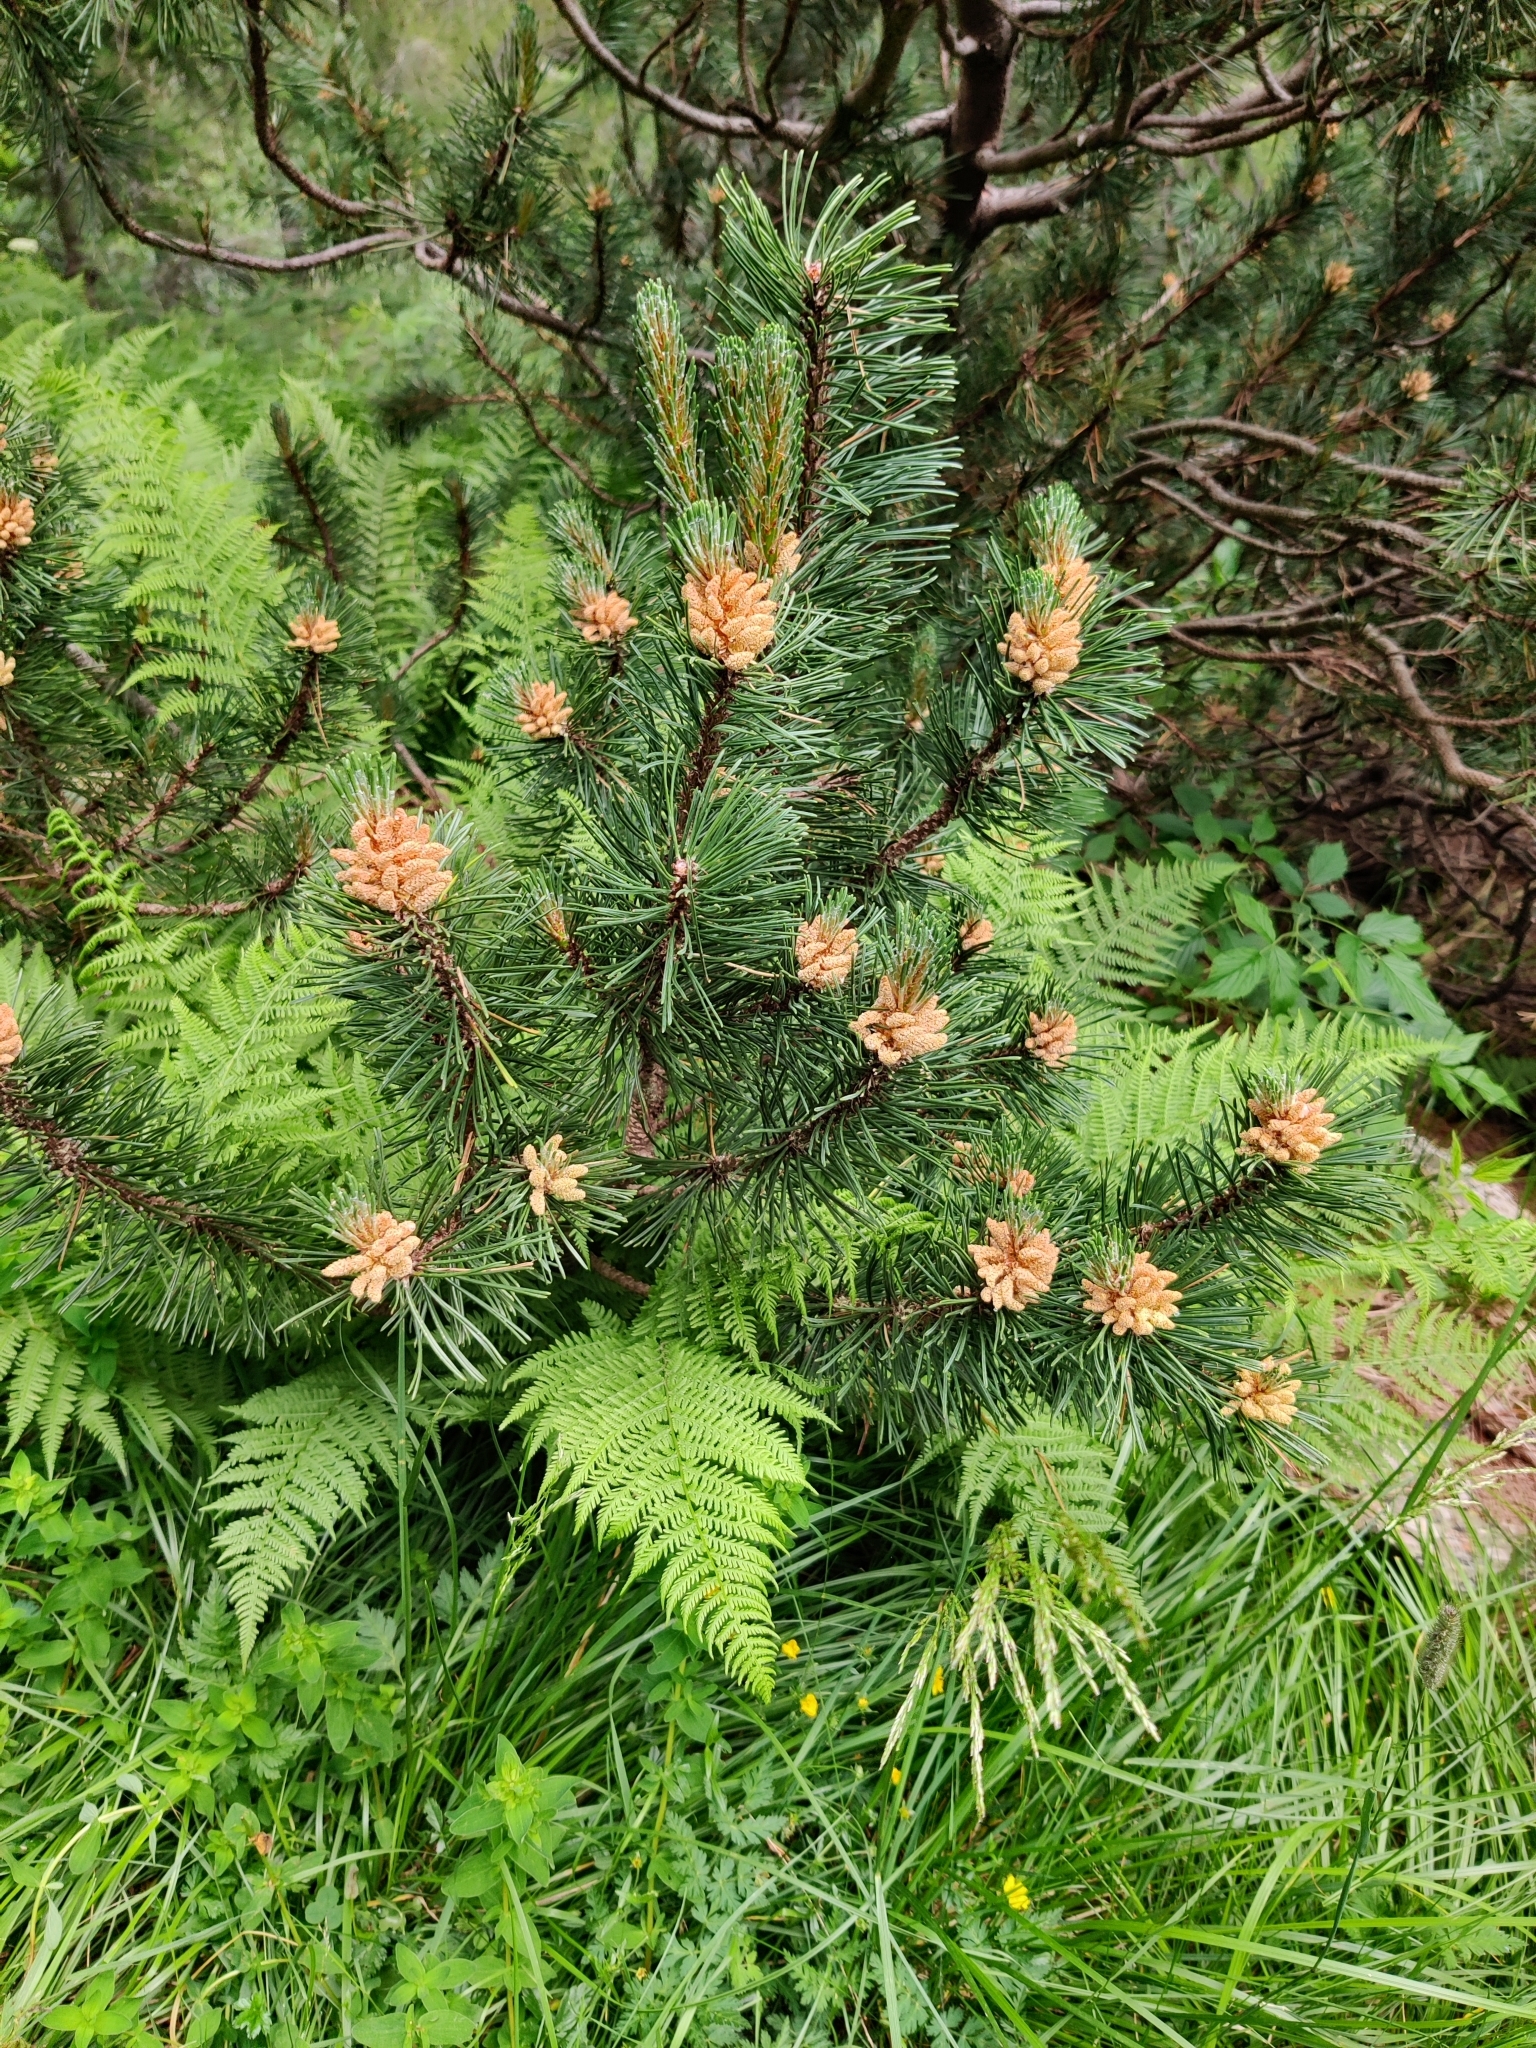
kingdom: Plantae
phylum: Tracheophyta
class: Pinopsida
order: Pinales
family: Pinaceae
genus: Pinus
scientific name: Pinus mugo
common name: Mugo pine
